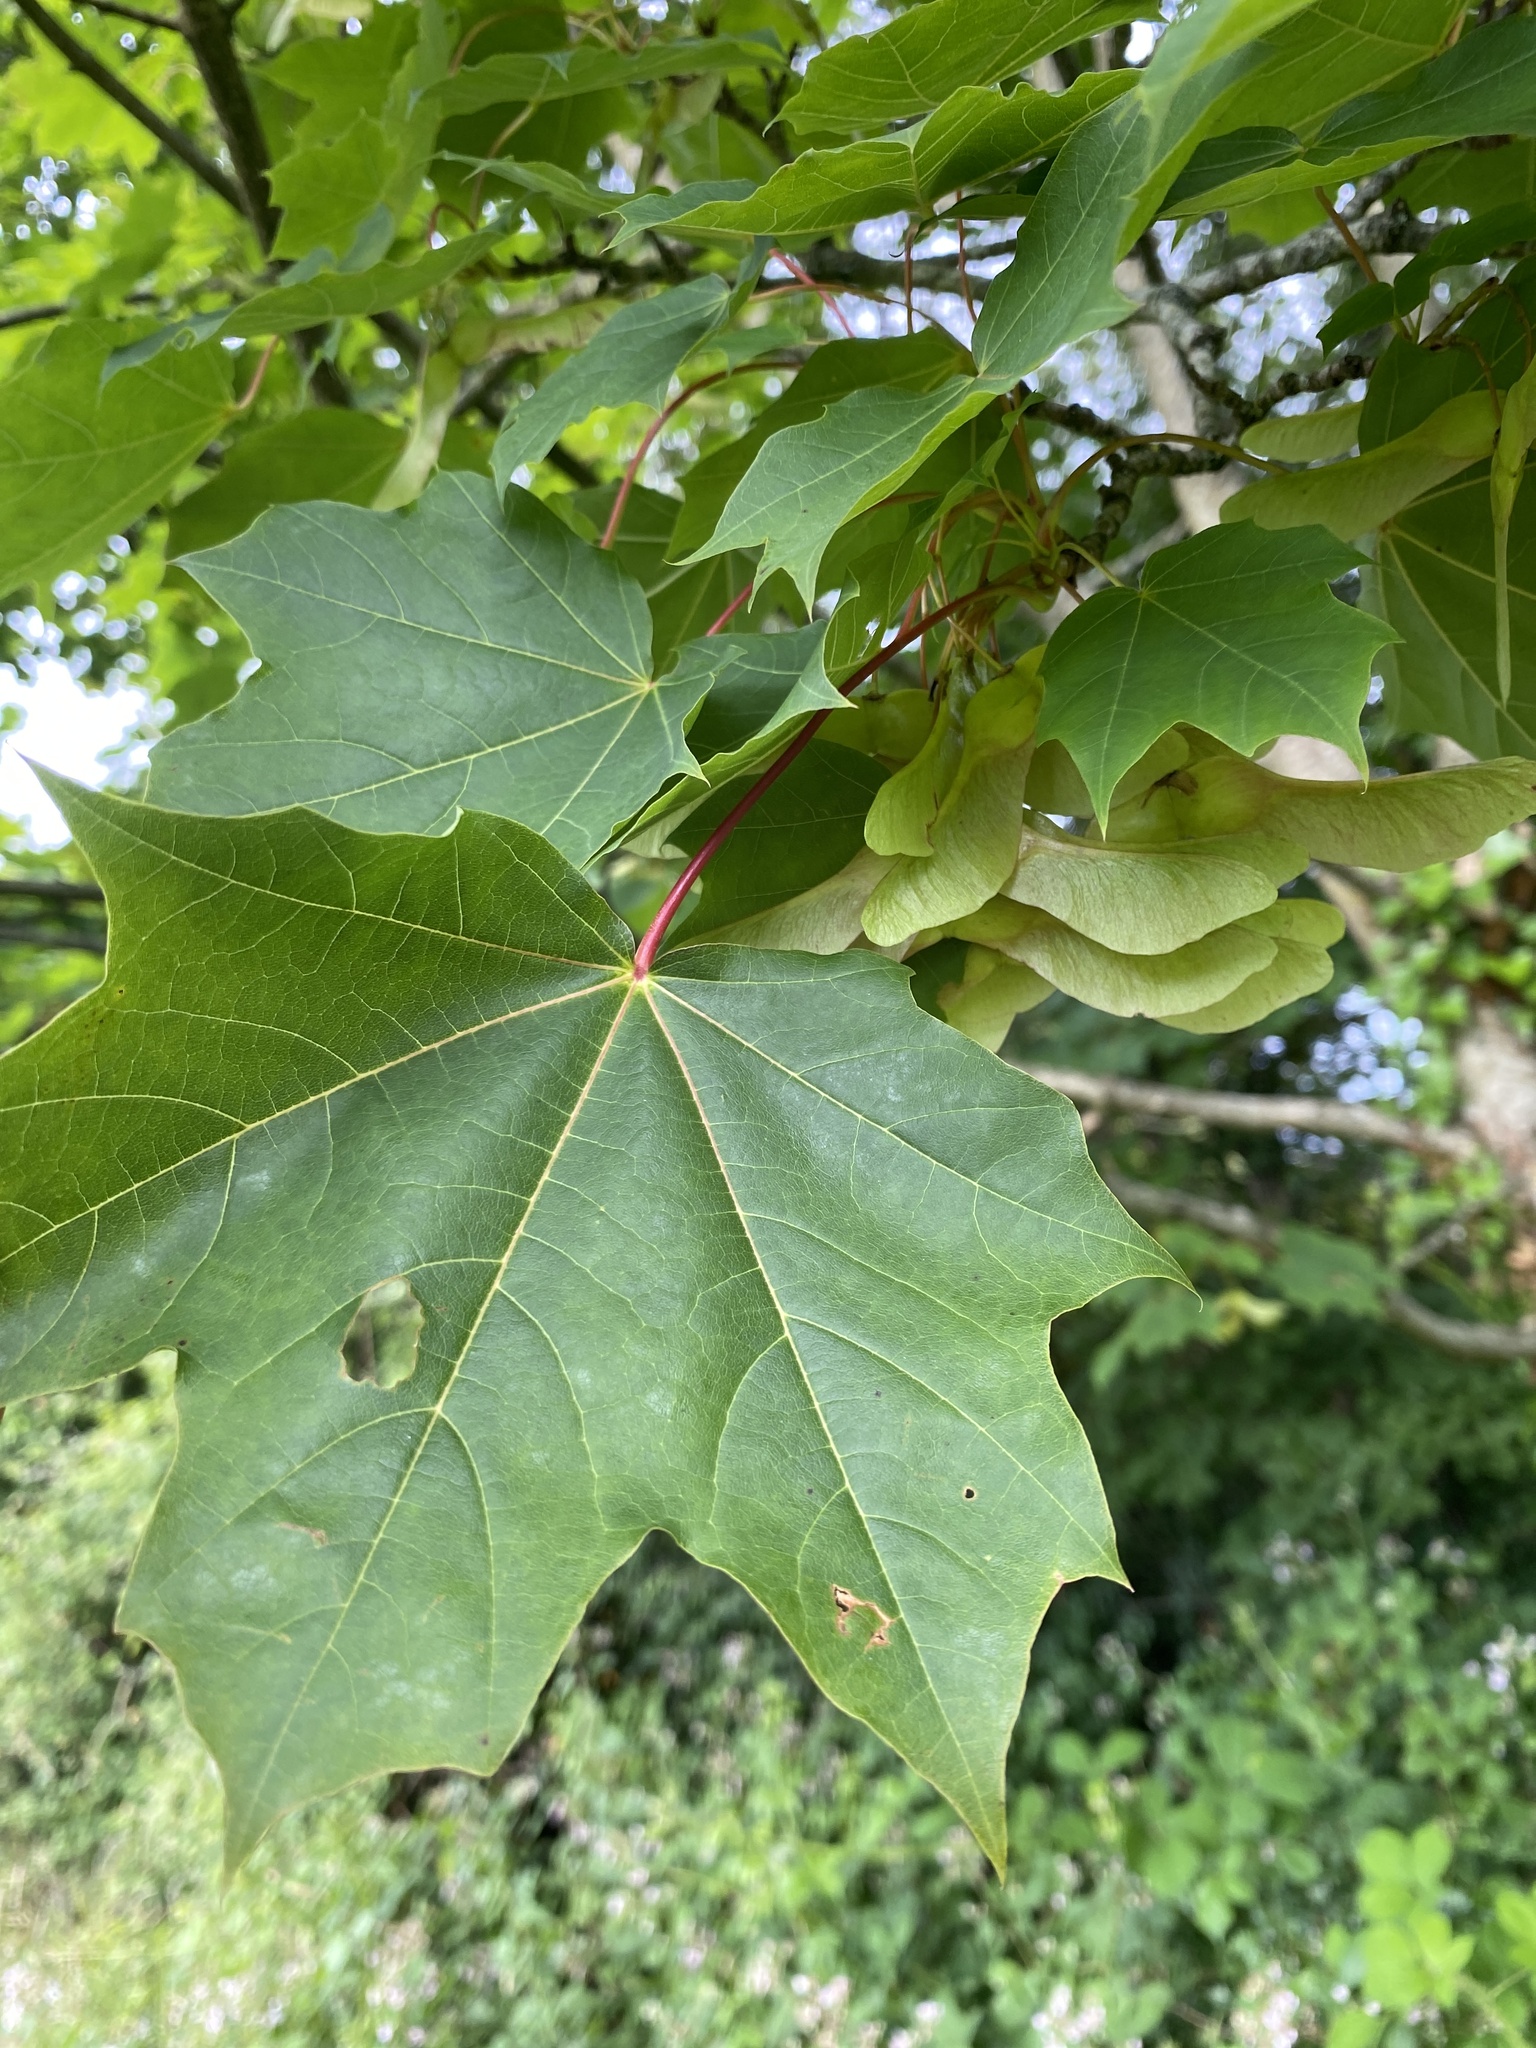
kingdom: Plantae
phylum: Tracheophyta
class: Magnoliopsida
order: Sapindales
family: Sapindaceae
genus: Acer
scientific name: Acer platanoides
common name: Norway maple
